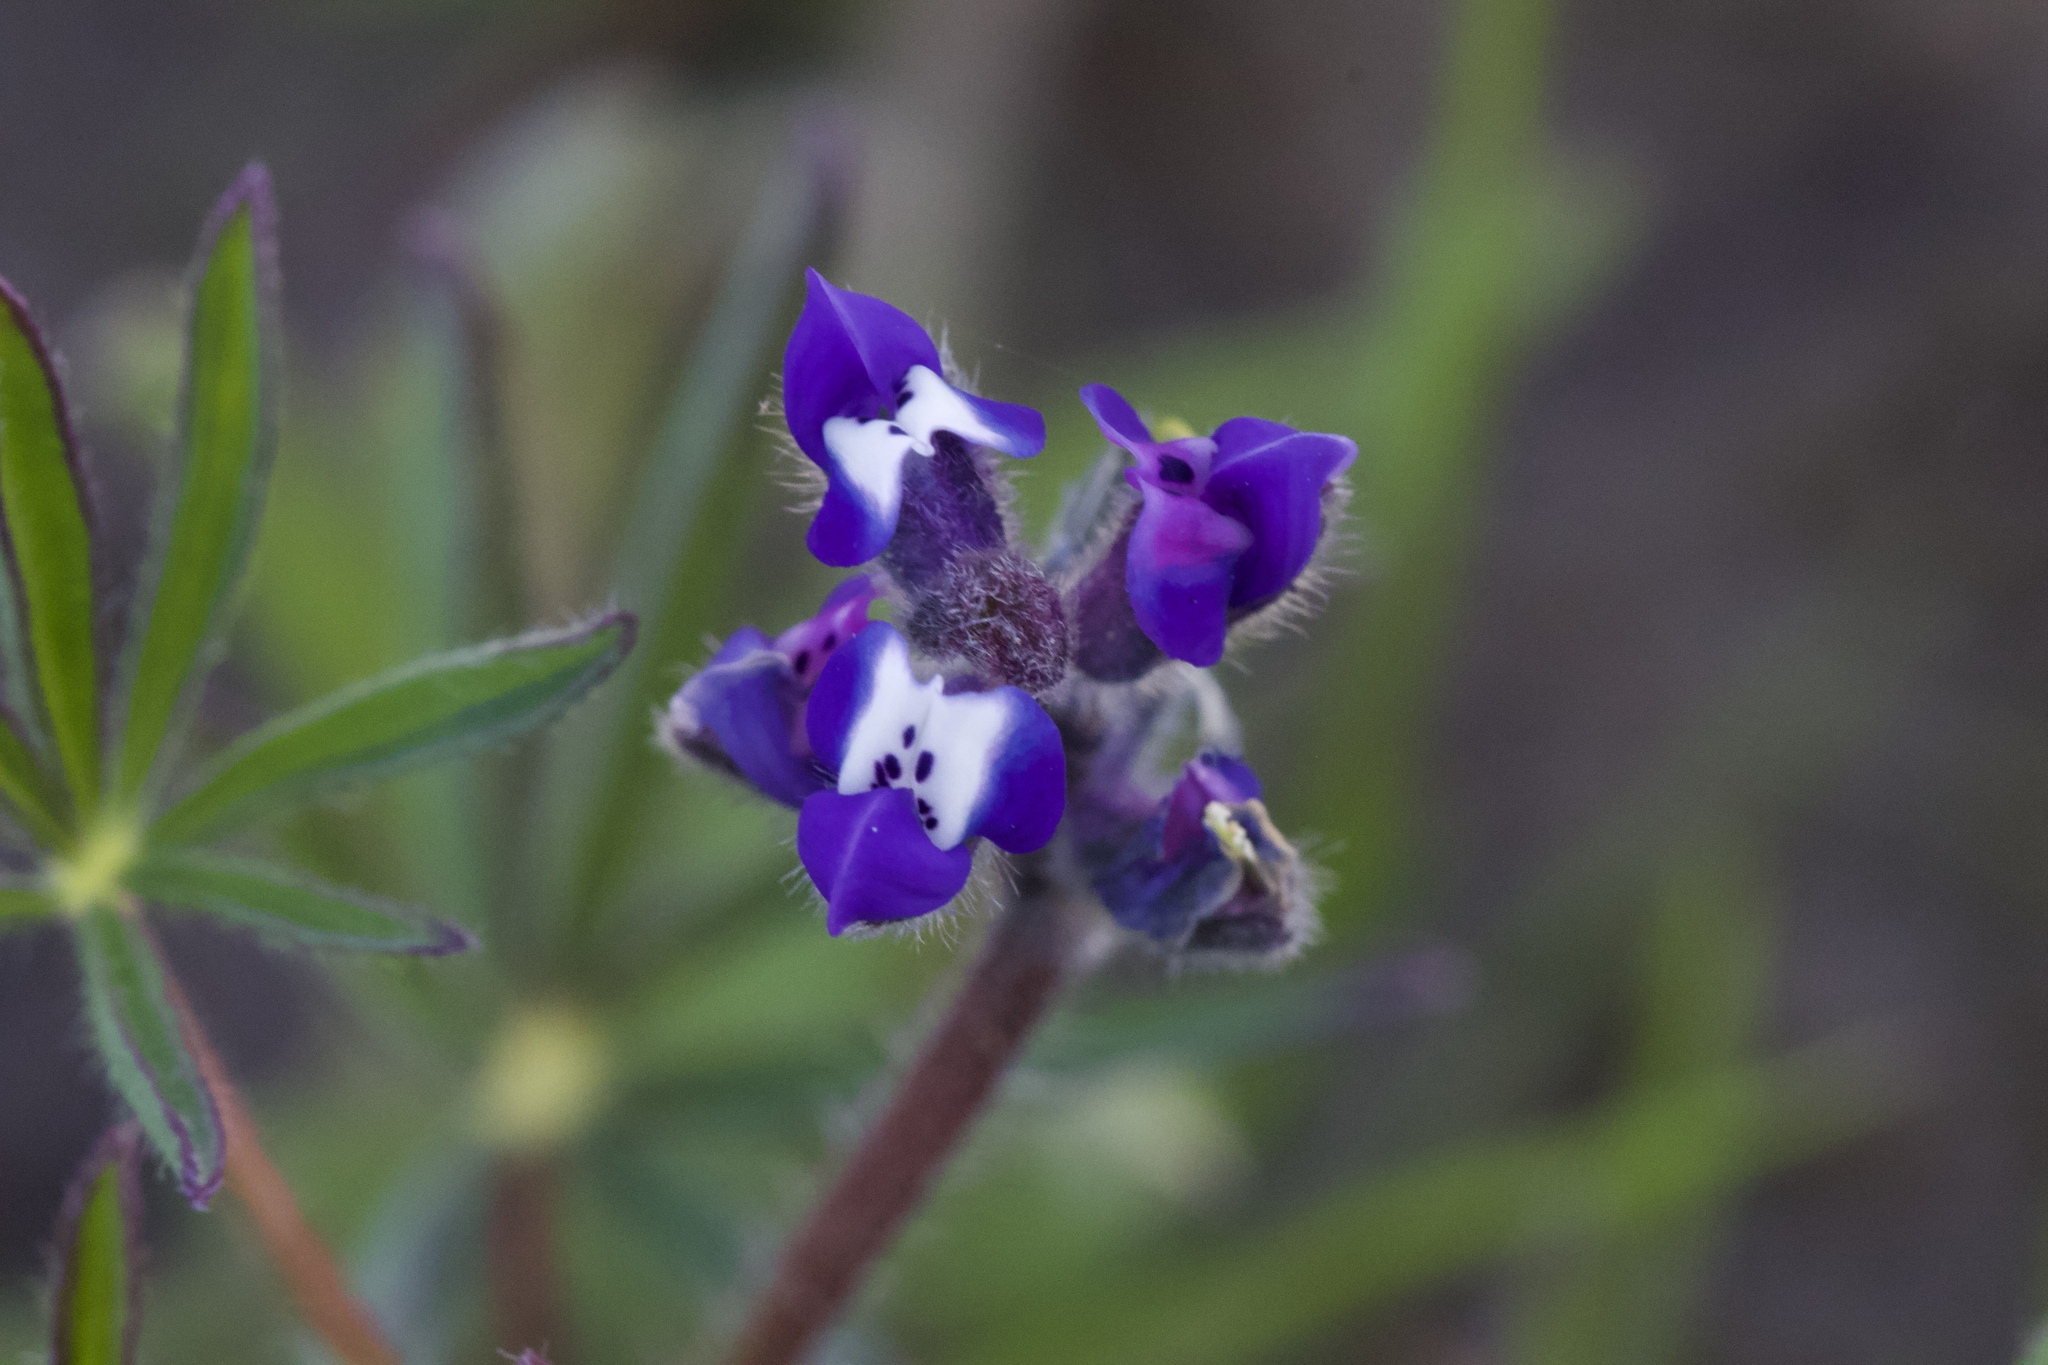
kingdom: Plantae
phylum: Tracheophyta
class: Magnoliopsida
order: Fabales
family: Fabaceae
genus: Lupinus
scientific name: Lupinus bicolor
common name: Miniature lupine
